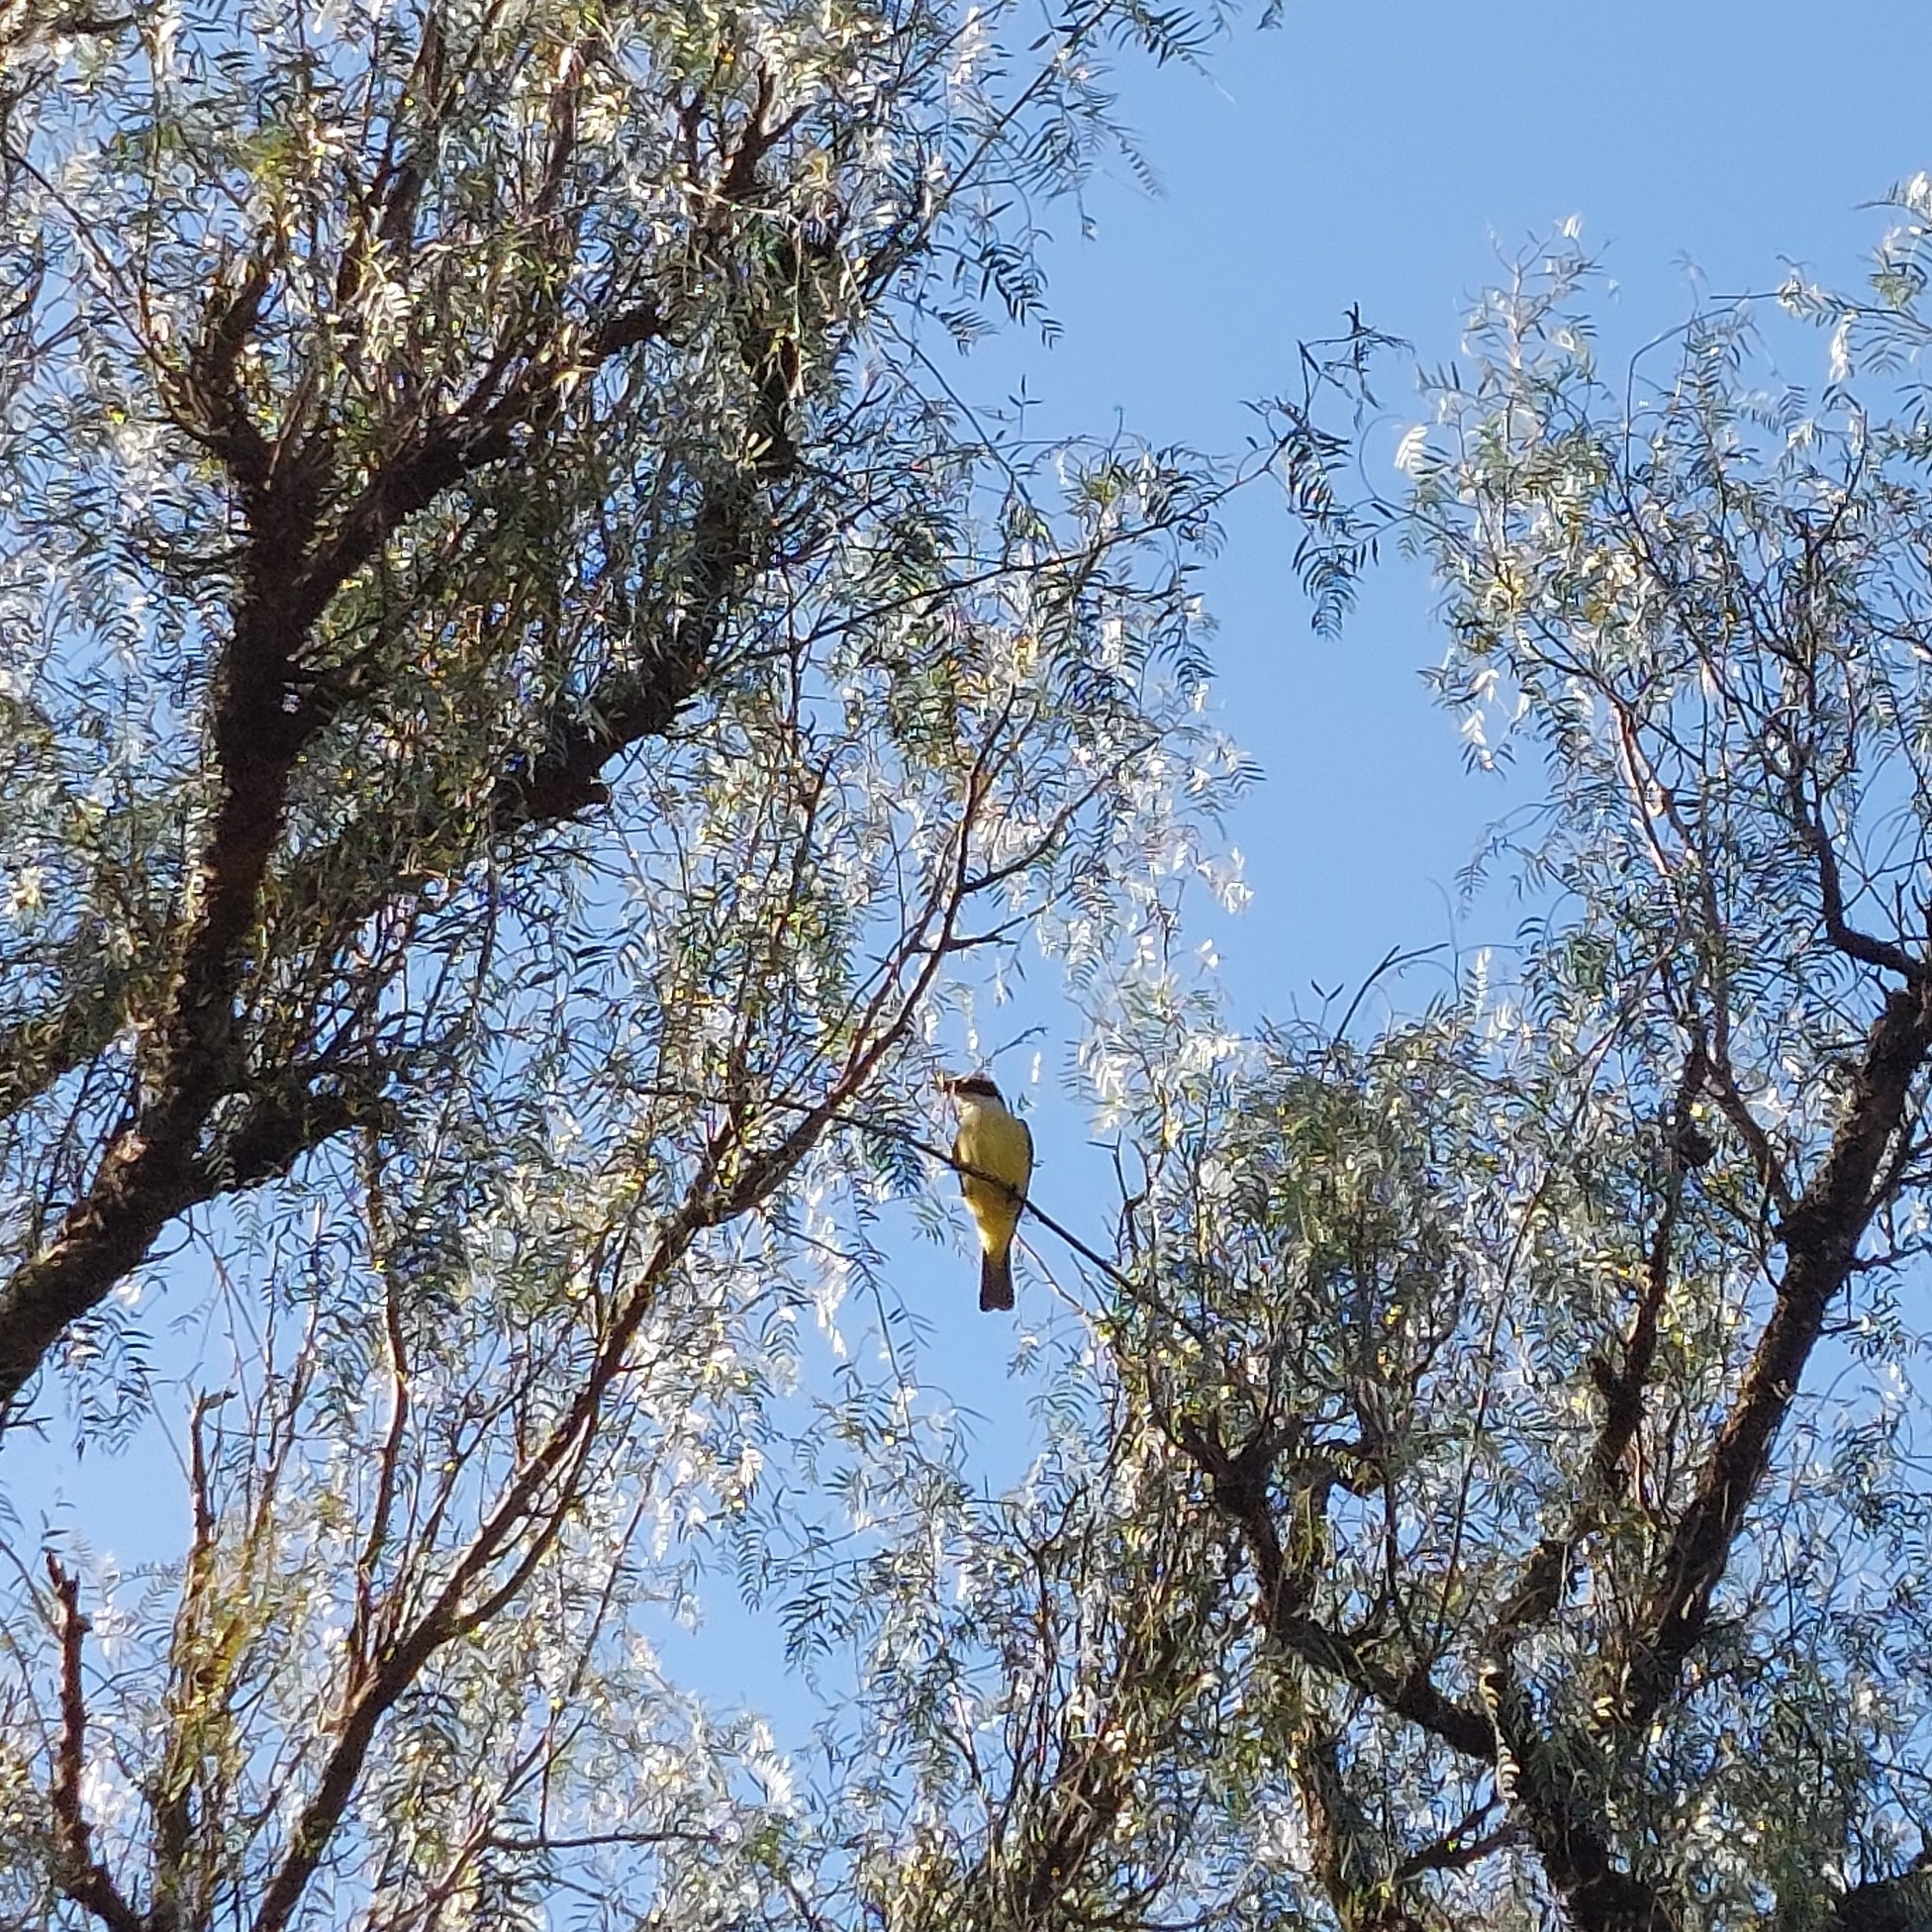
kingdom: Animalia
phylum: Chordata
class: Aves
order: Passeriformes
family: Tyrannidae
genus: Pitangus
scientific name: Pitangus sulphuratus
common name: Great kiskadee
